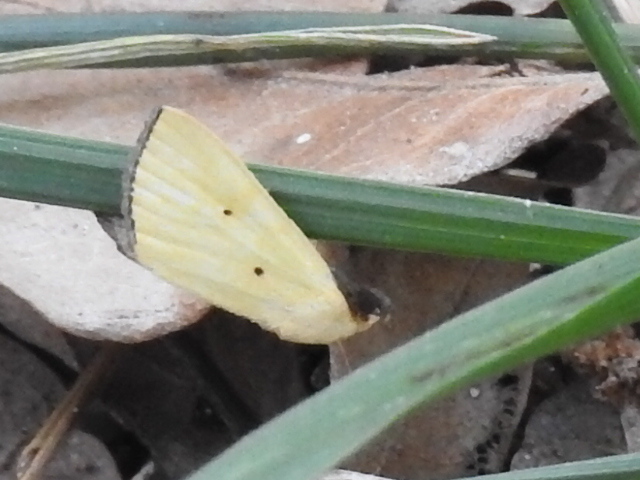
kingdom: Animalia
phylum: Arthropoda
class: Insecta
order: Lepidoptera
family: Noctuidae
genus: Marimatha
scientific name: Marimatha nigrofimbria
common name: Black-bordered lemon moth
